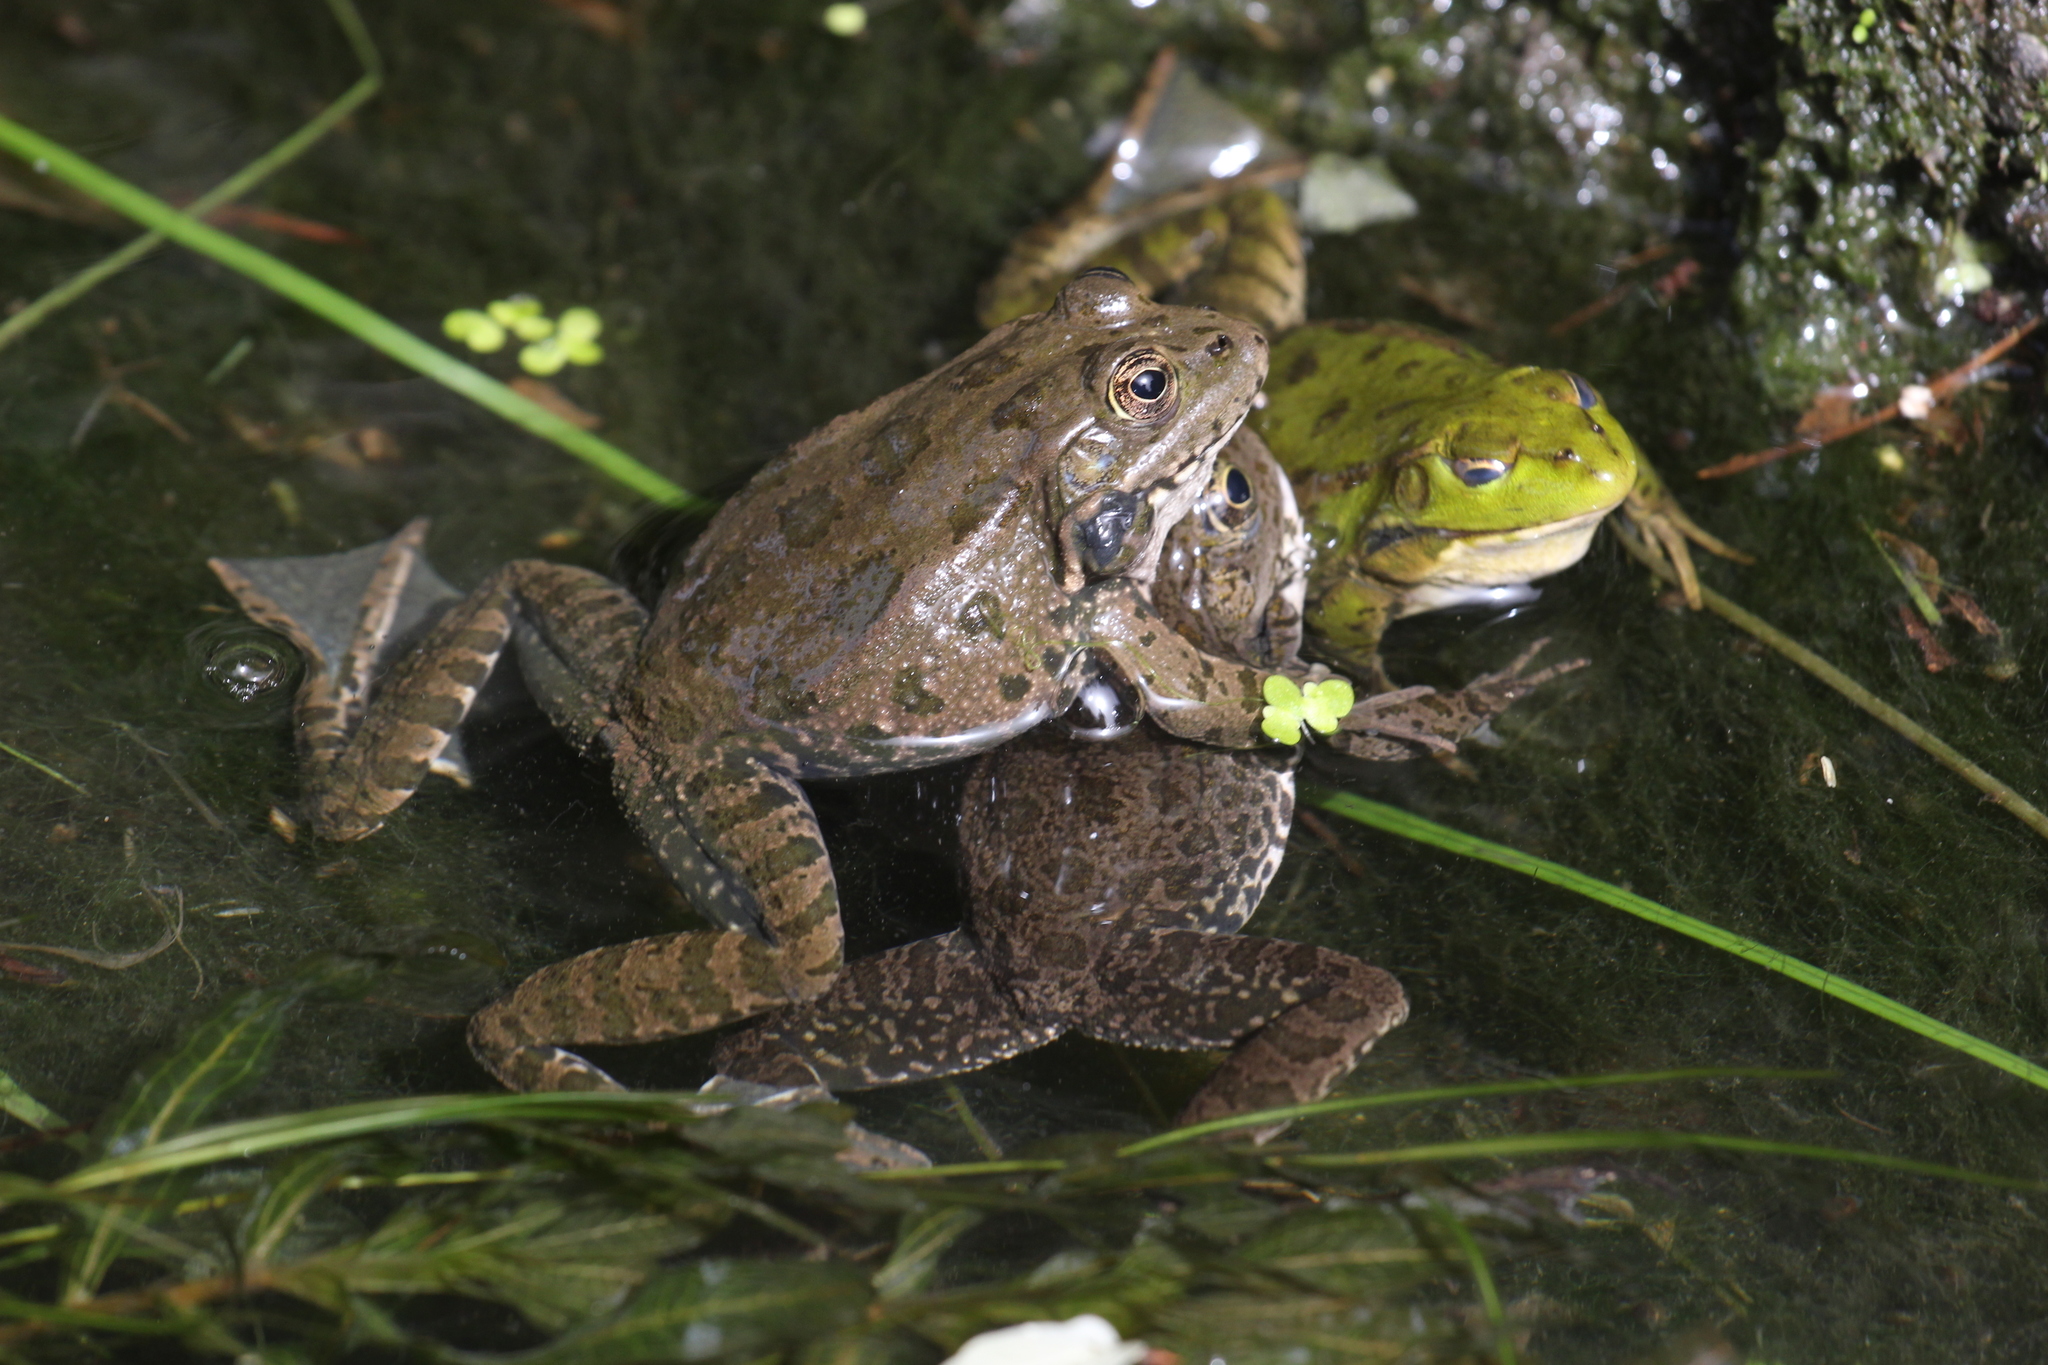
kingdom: Animalia
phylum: Chordata
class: Amphibia
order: Anura
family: Ranidae
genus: Pelophylax
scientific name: Pelophylax ridibundus
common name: Marsh frog
